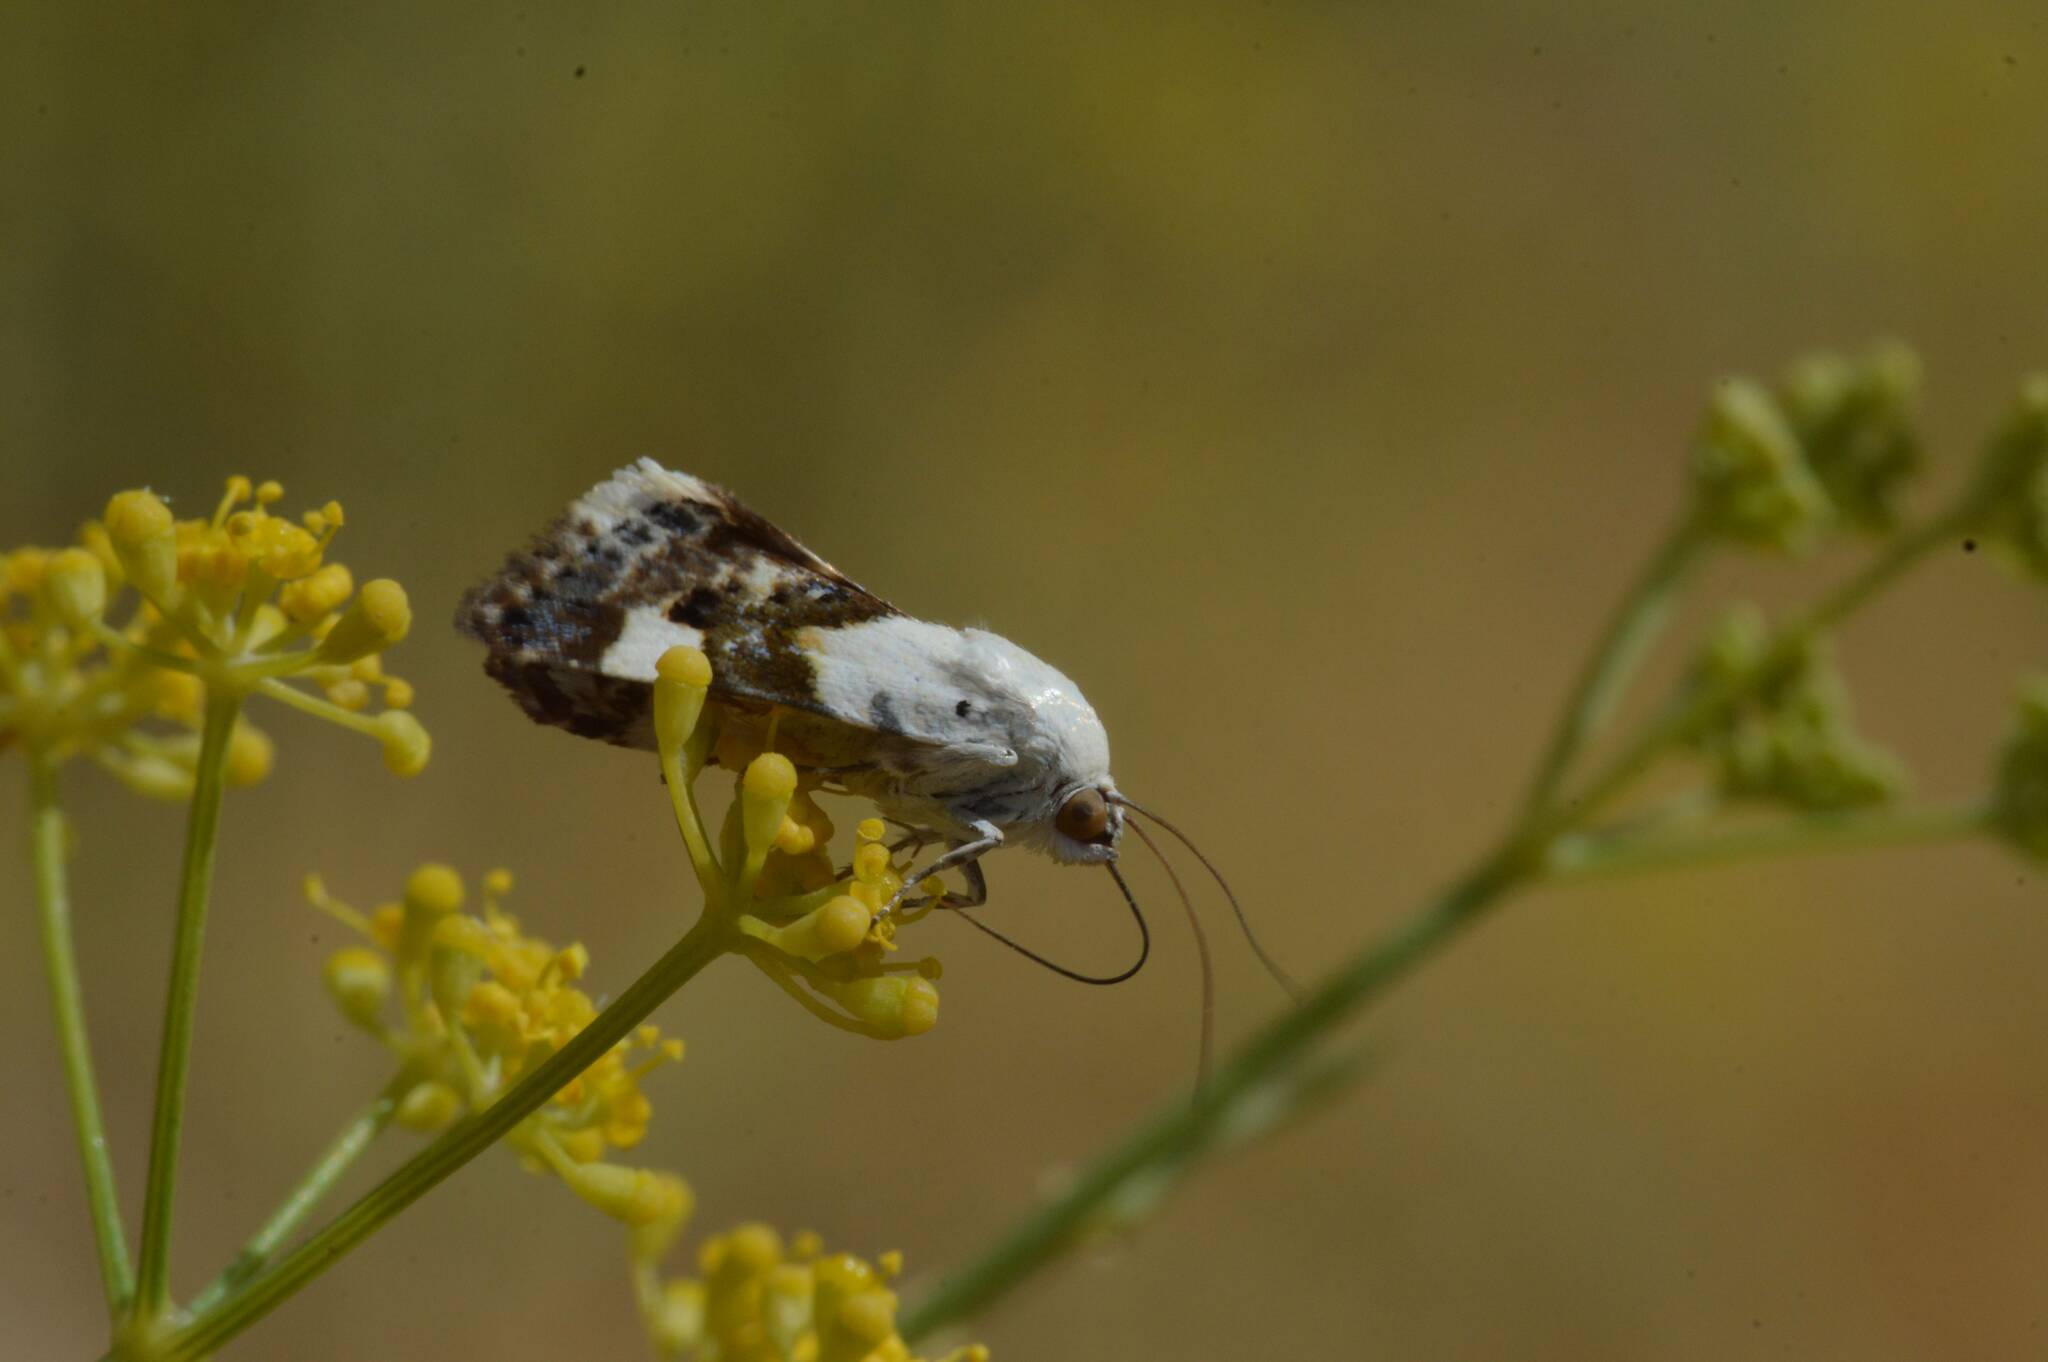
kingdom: Animalia
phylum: Arthropoda
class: Insecta
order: Lepidoptera
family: Noctuidae
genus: Acontia
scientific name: Acontia lucida
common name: Pale shoulder
